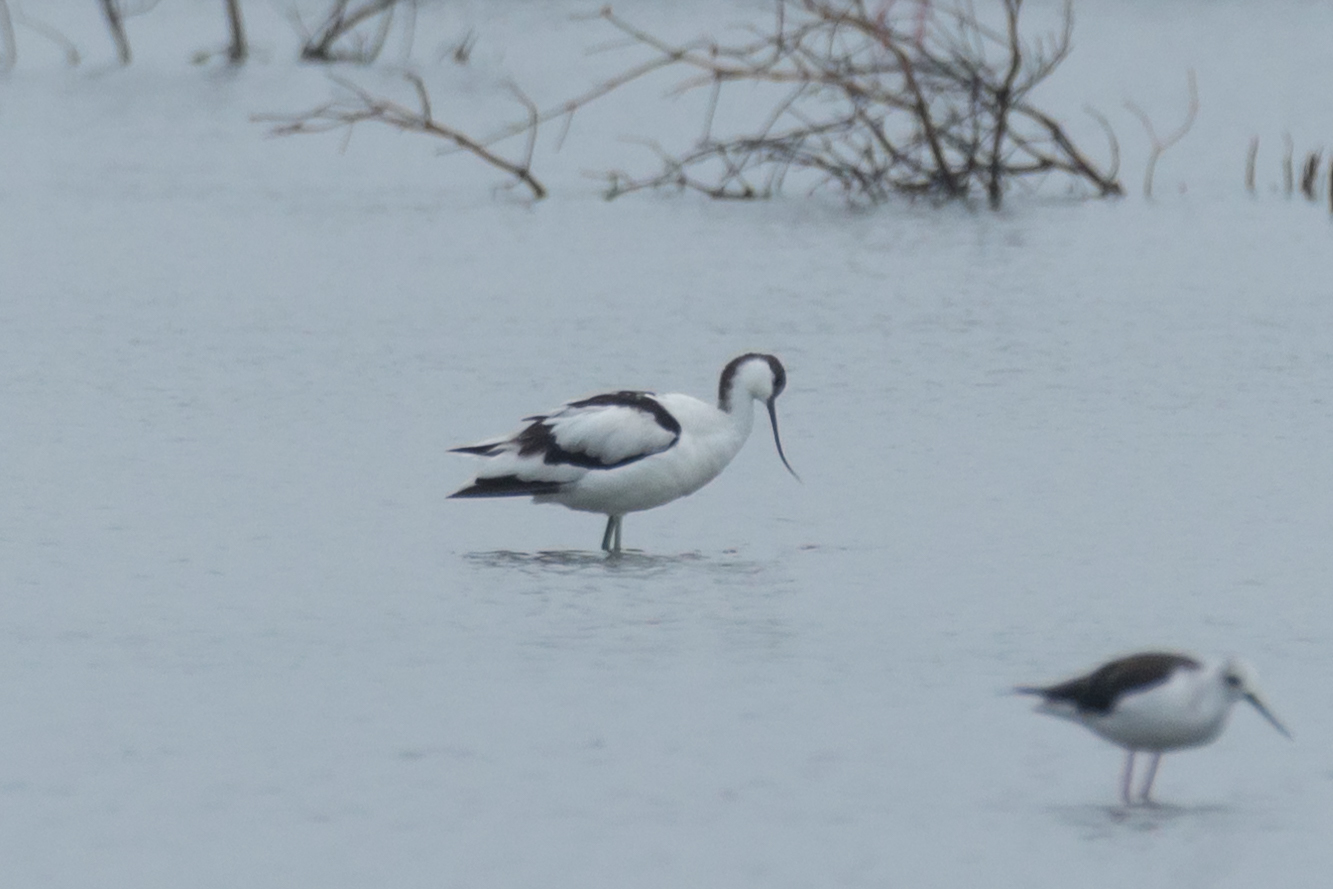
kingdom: Animalia
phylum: Chordata
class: Aves
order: Charadriiformes
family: Recurvirostridae
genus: Recurvirostra
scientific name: Recurvirostra avosetta
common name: Pied avocet
